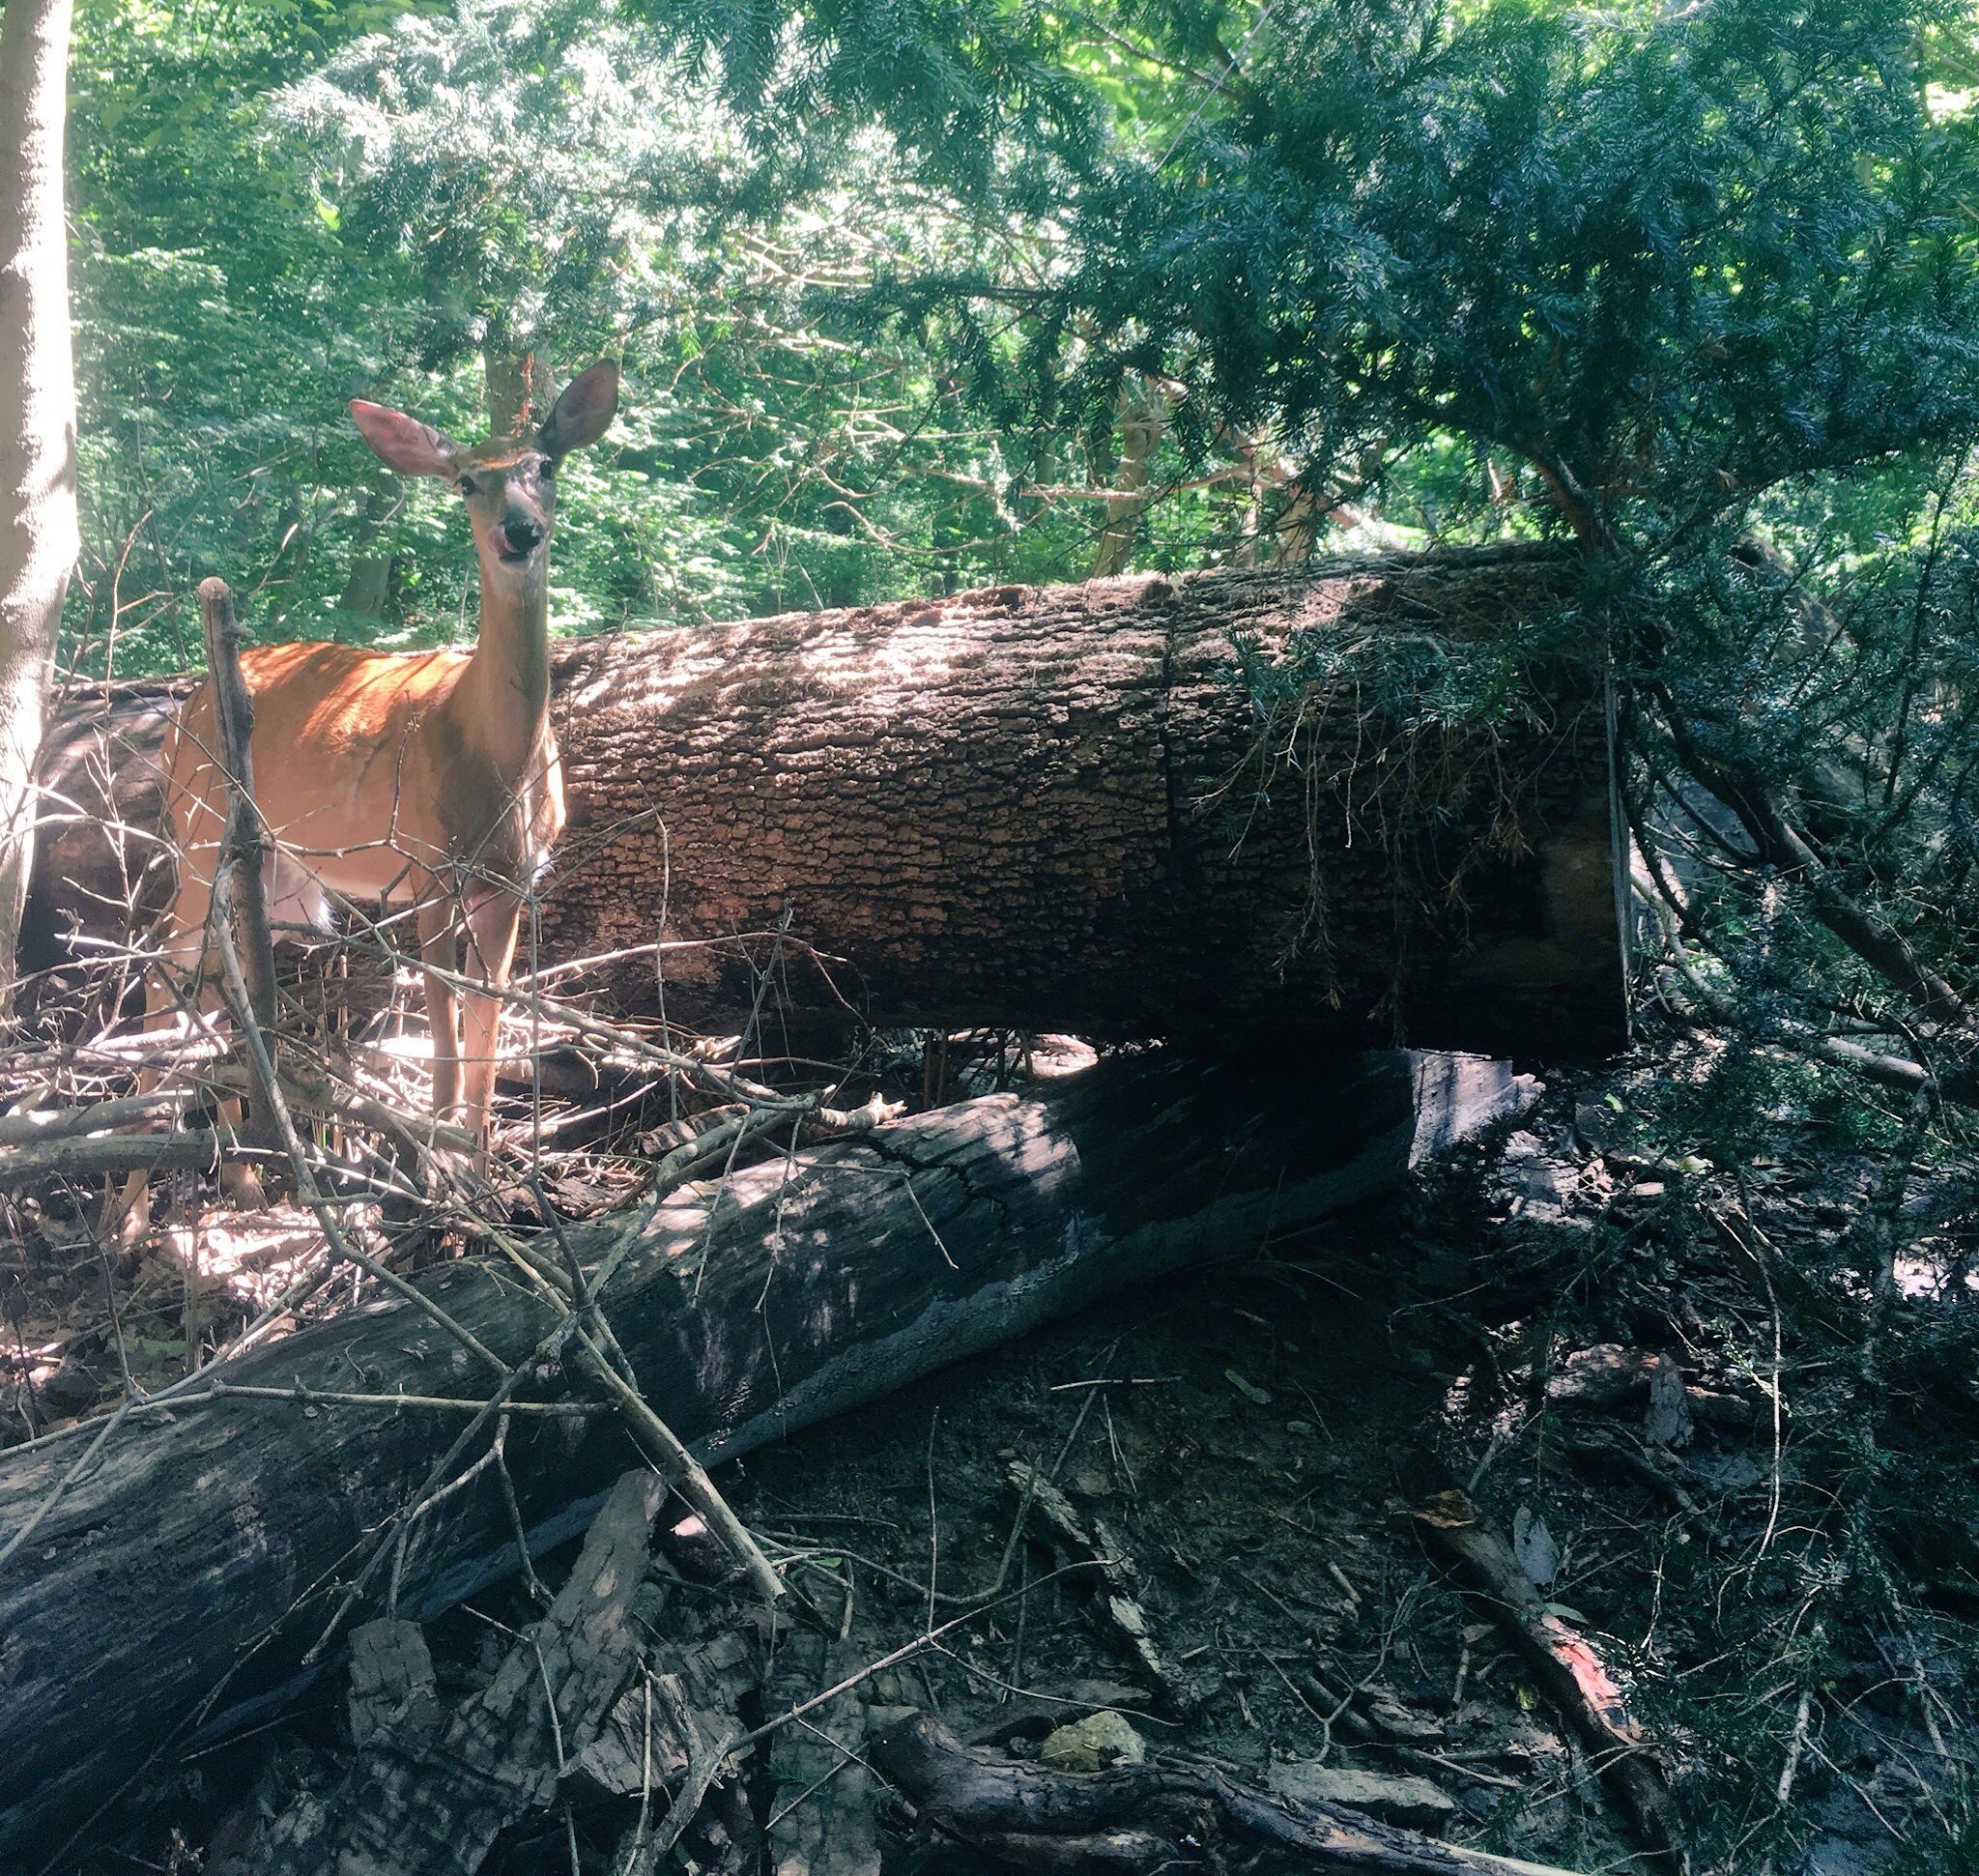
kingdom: Animalia
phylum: Chordata
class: Mammalia
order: Artiodactyla
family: Cervidae
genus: Odocoileus
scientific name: Odocoileus virginianus
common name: White-tailed deer
